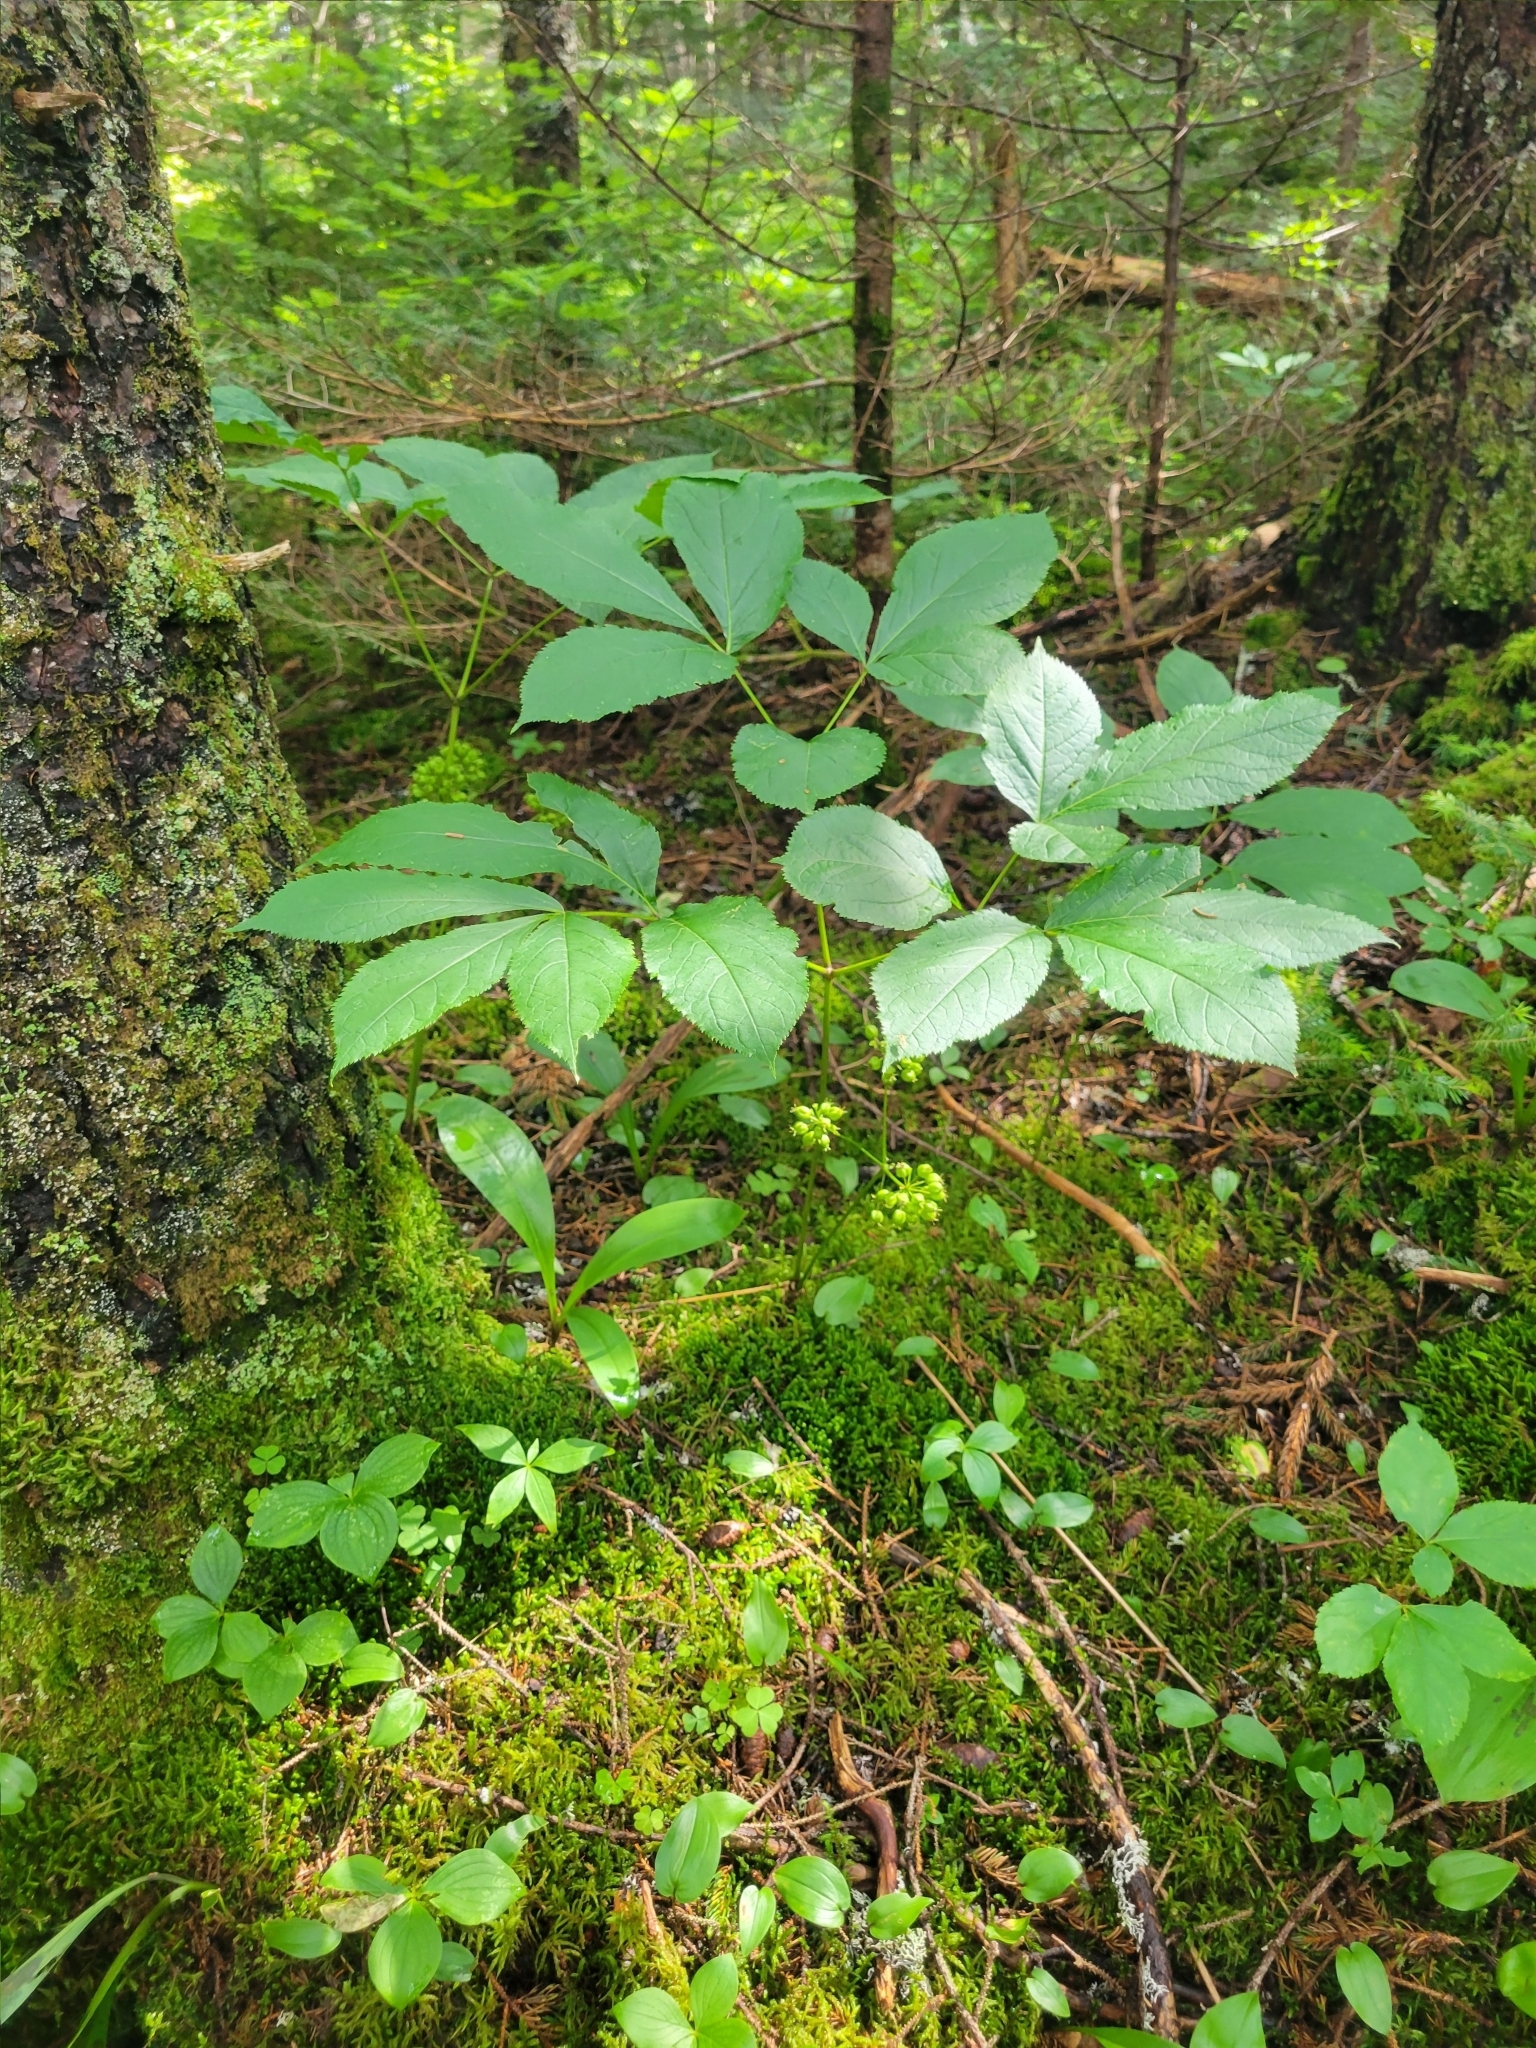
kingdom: Plantae
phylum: Tracheophyta
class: Magnoliopsida
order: Apiales
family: Araliaceae
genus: Aralia
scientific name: Aralia nudicaulis
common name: Wild sarsaparilla
